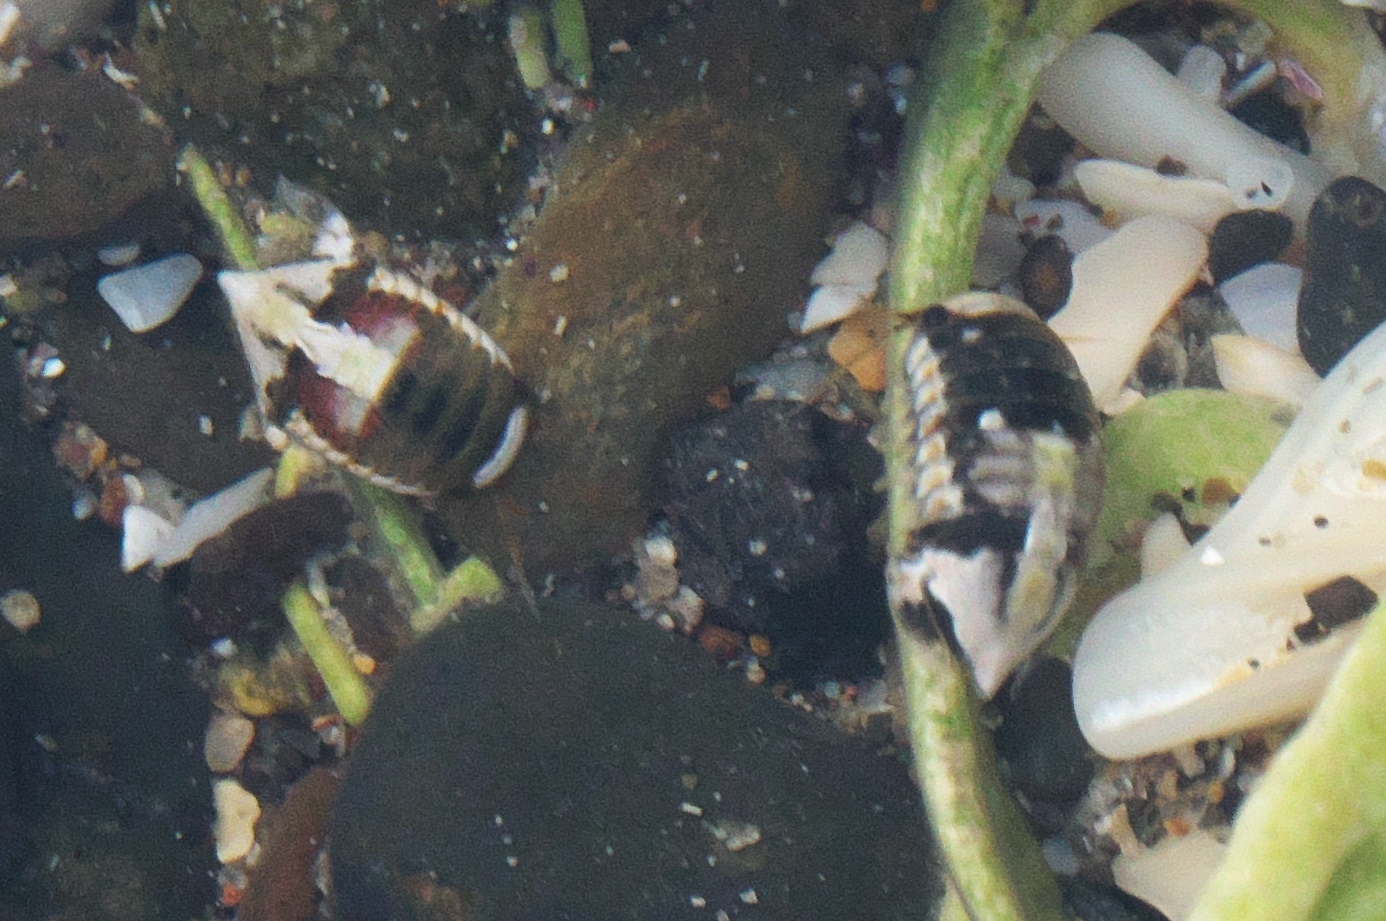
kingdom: Animalia
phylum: Arthropoda
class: Malacostraca
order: Isopoda
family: Sphaeromatidae
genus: Isocladus
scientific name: Isocladus armatus
